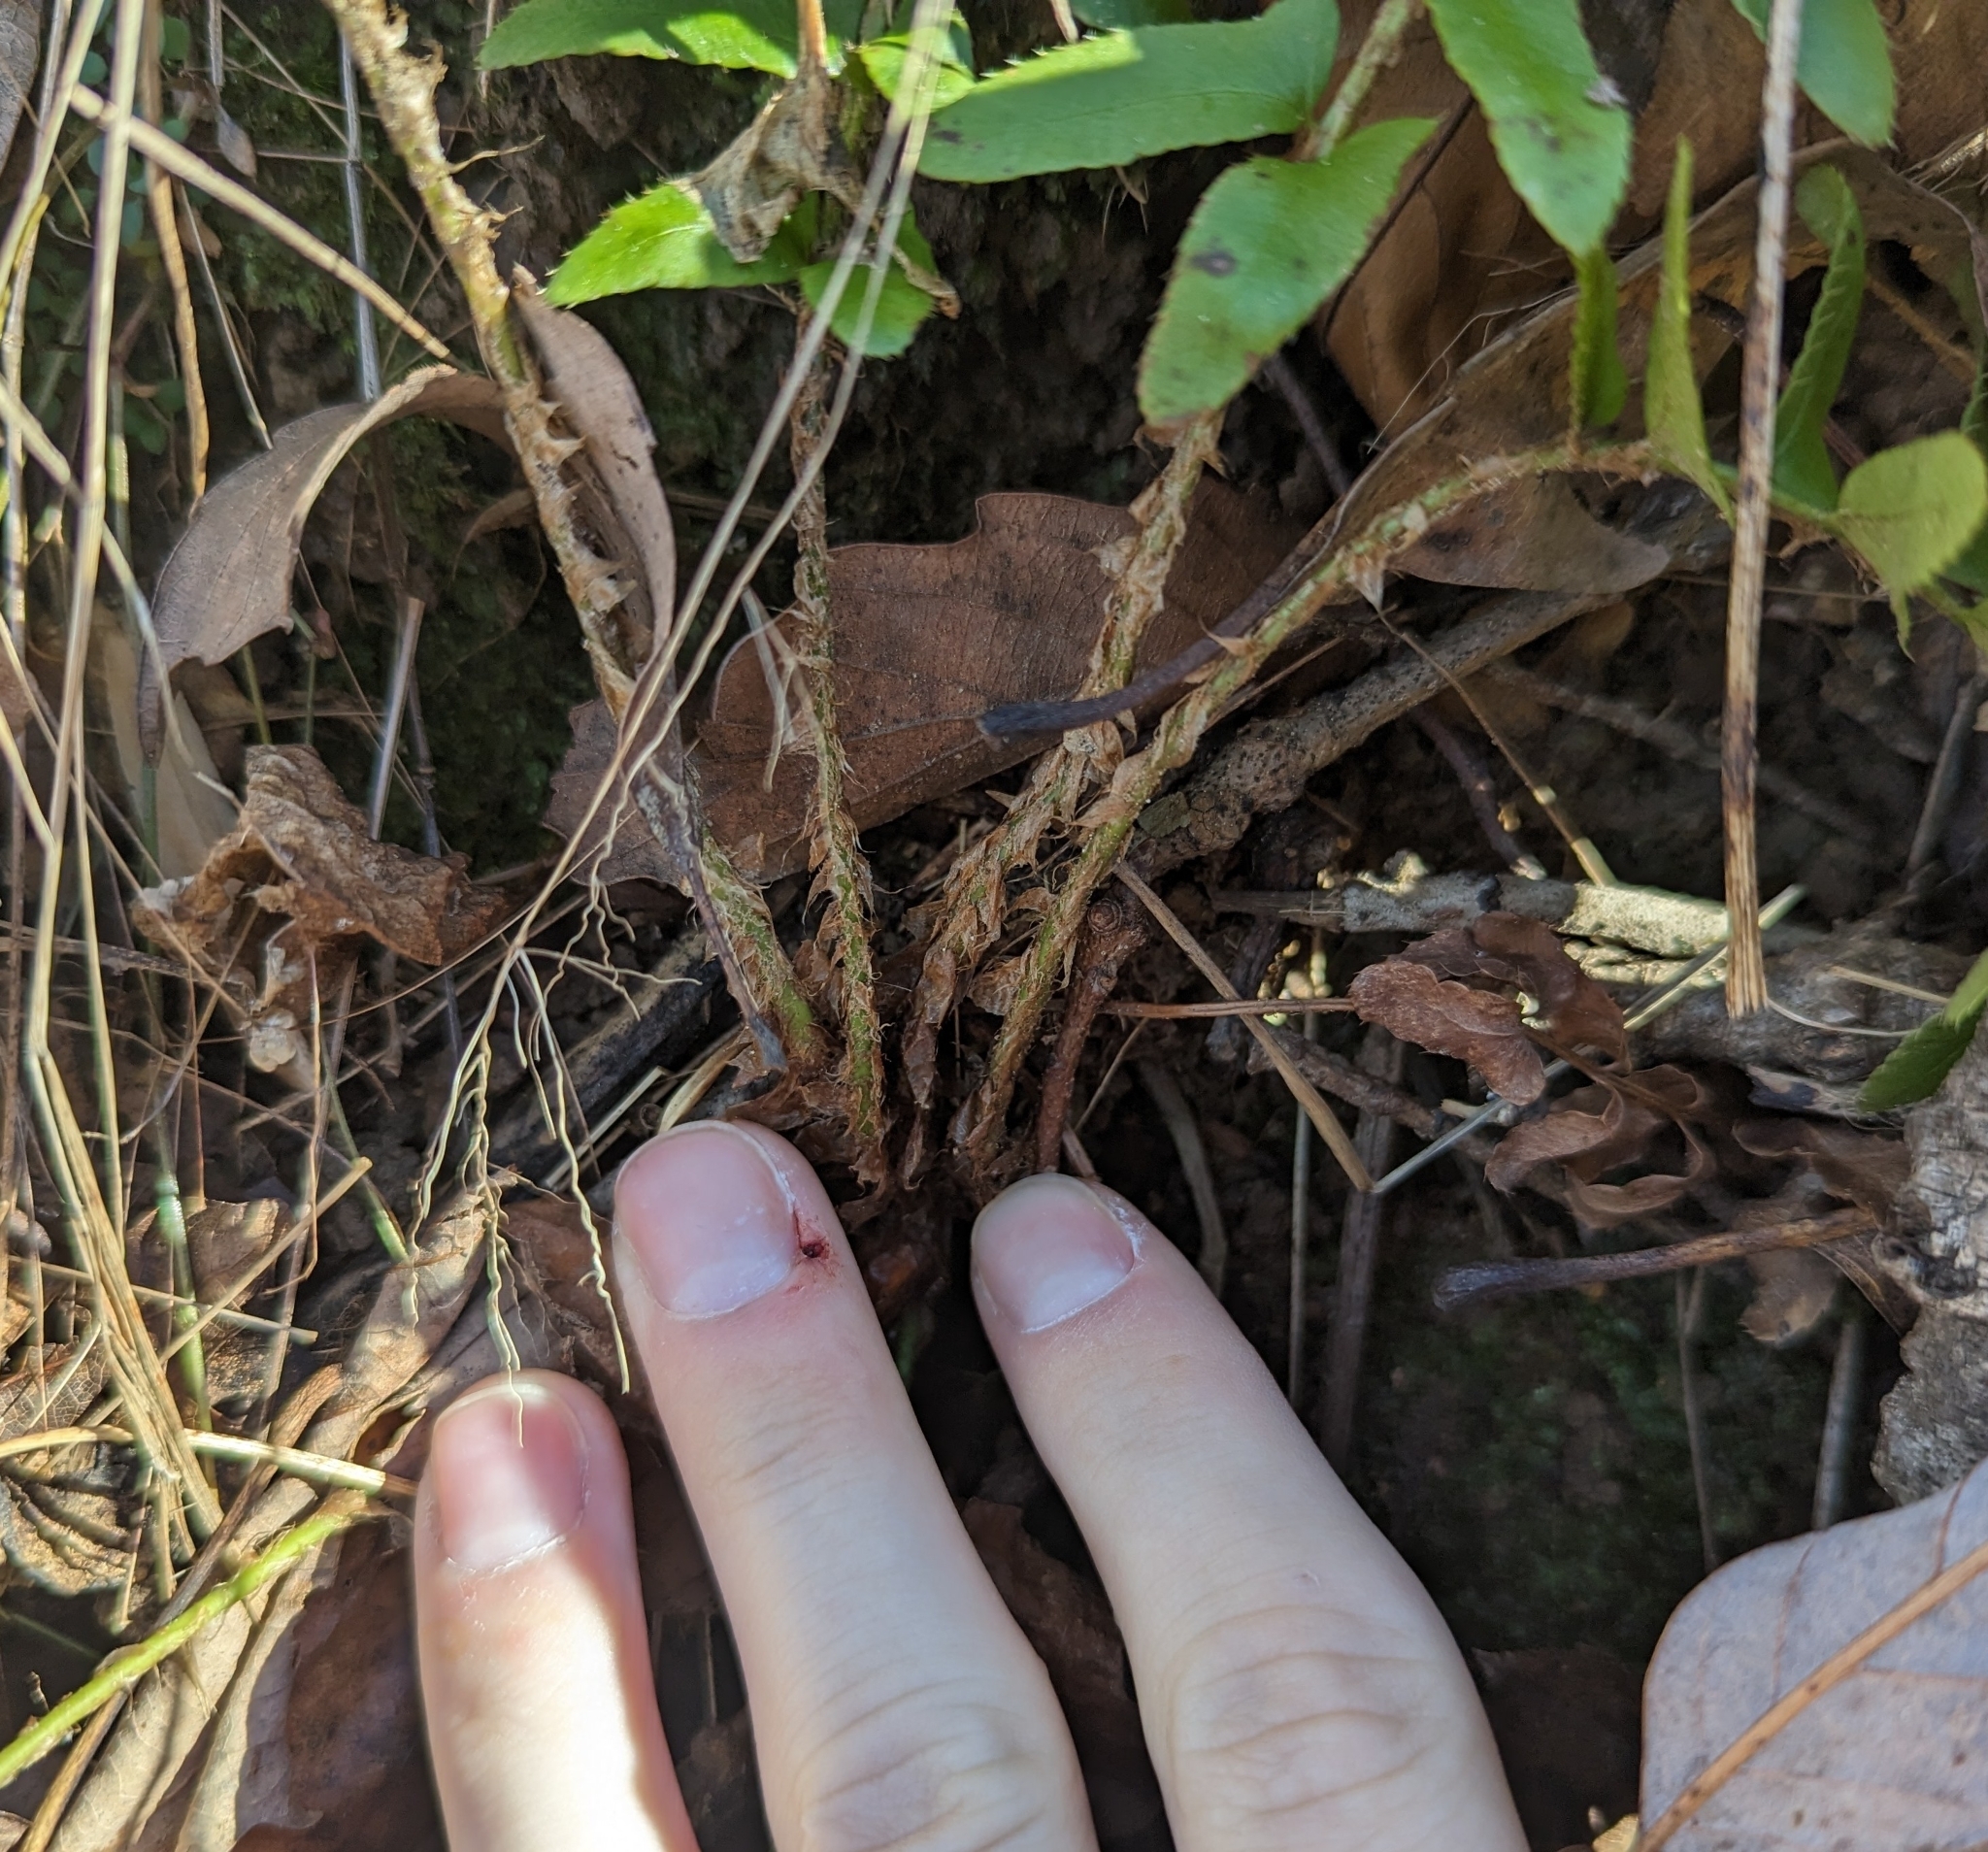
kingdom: Plantae
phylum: Tracheophyta
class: Polypodiopsida
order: Polypodiales
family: Dryopteridaceae
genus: Polystichum
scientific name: Polystichum acrostichoides
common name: Christmas fern
